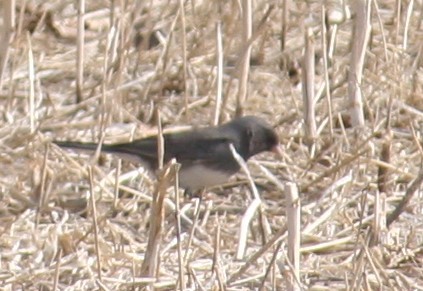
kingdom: Animalia
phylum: Chordata
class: Aves
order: Passeriformes
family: Passerellidae
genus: Junco
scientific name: Junco hyemalis
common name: Dark-eyed junco
